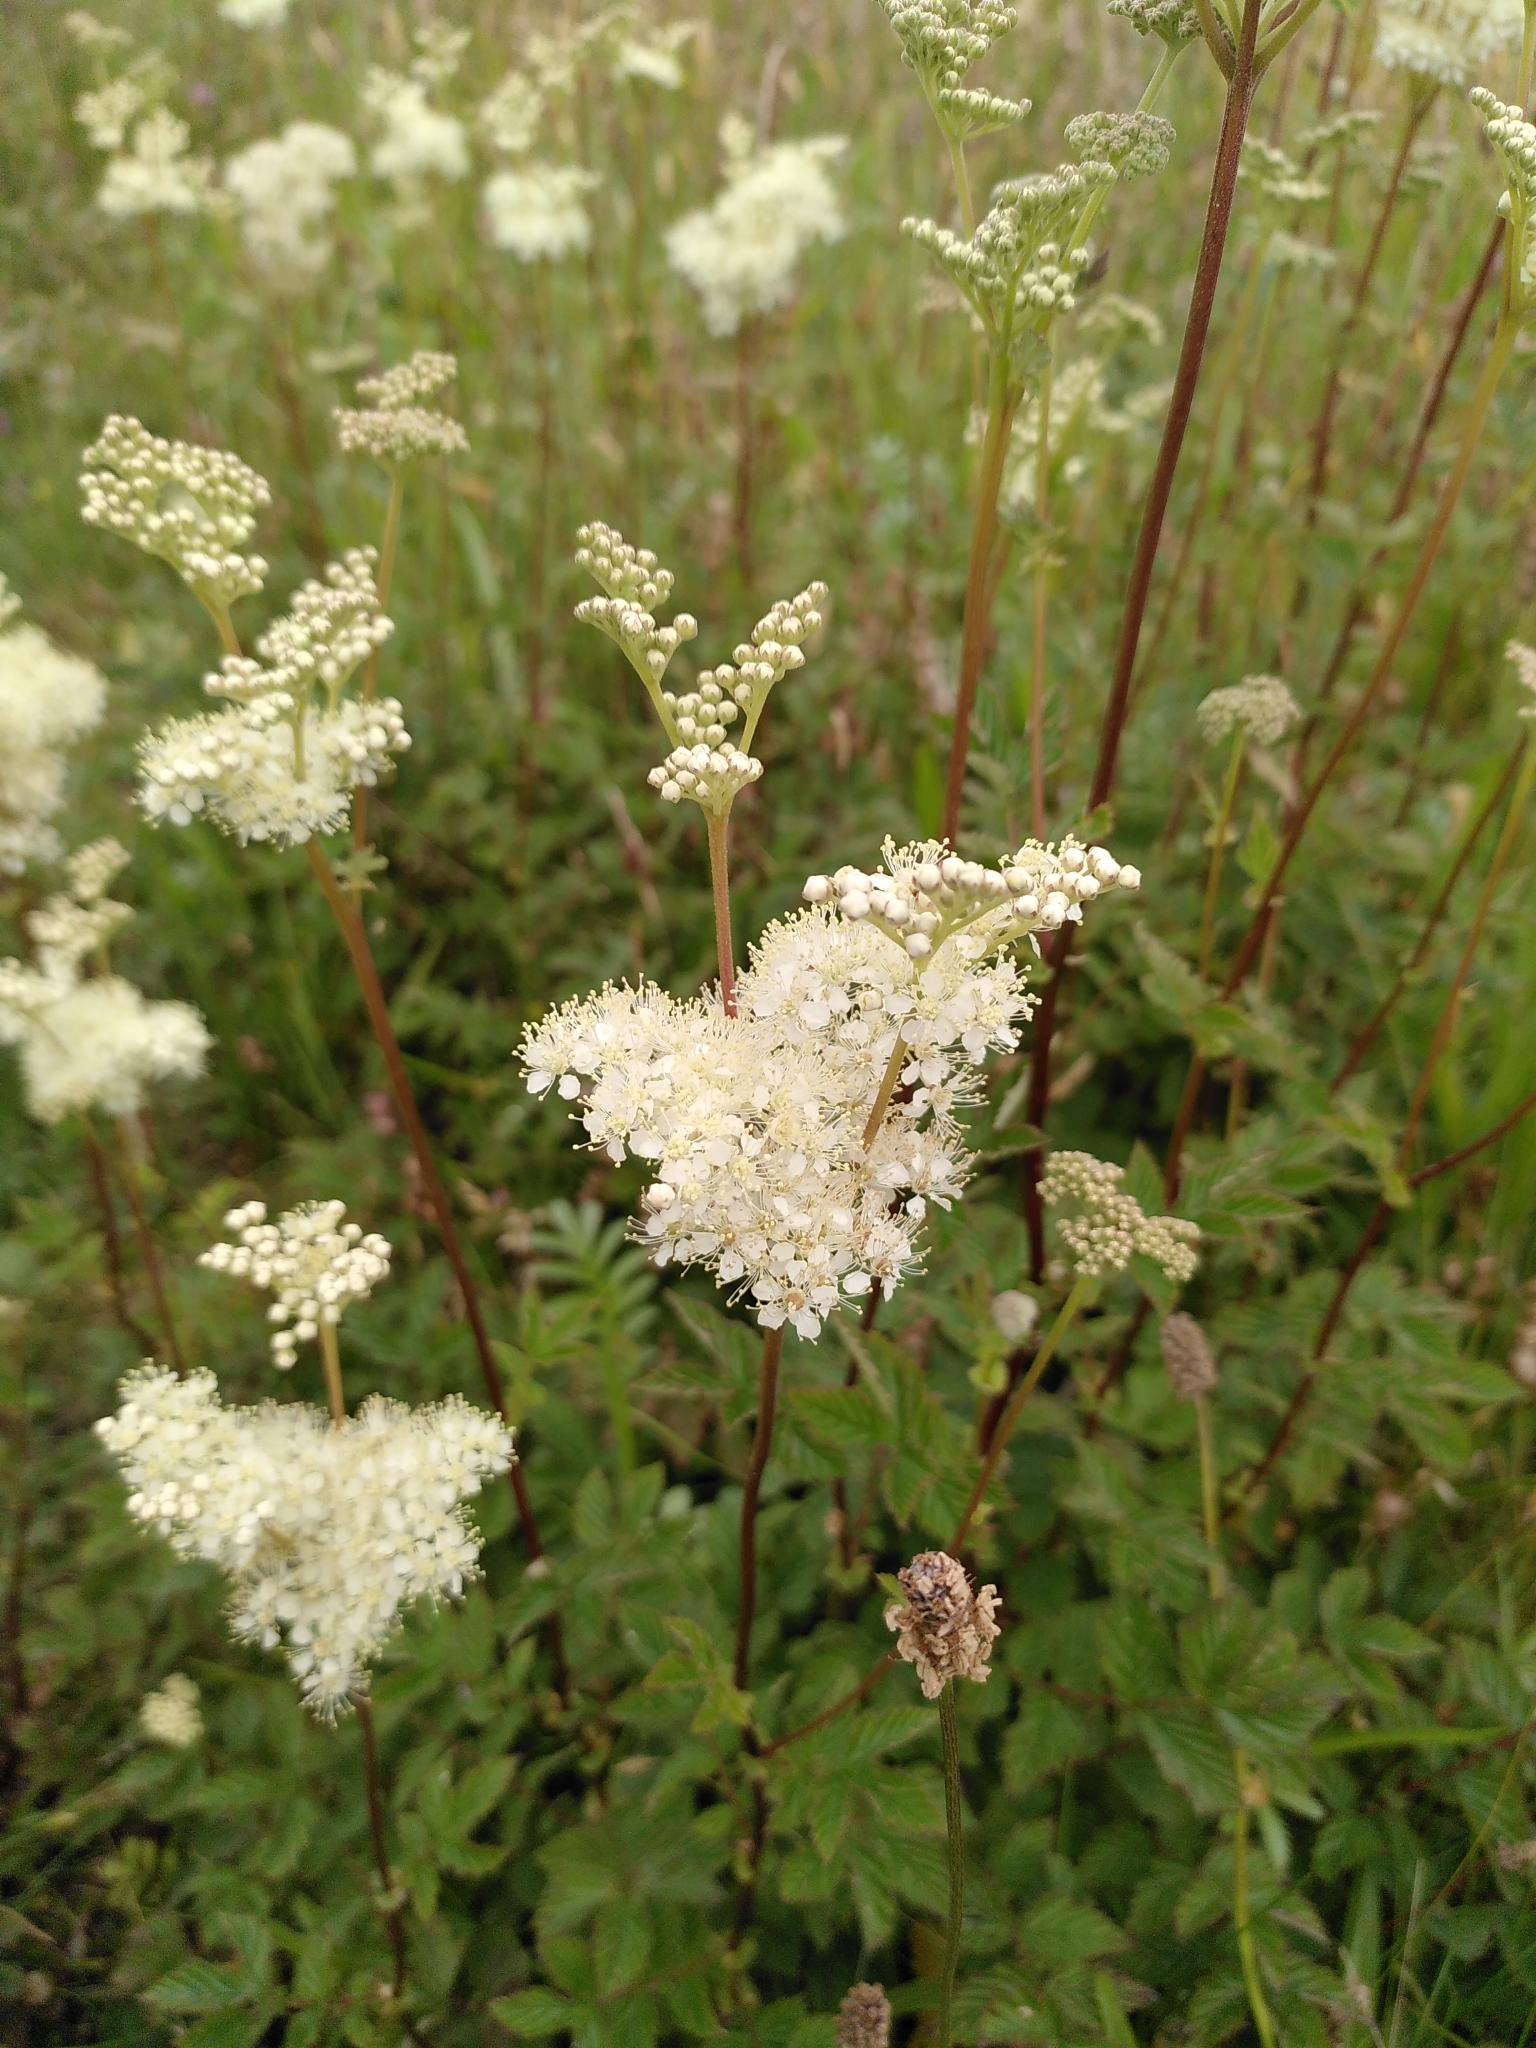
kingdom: Plantae
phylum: Tracheophyta
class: Magnoliopsida
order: Rosales
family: Rosaceae
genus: Filipendula
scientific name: Filipendula ulmaria
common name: Meadowsweet
